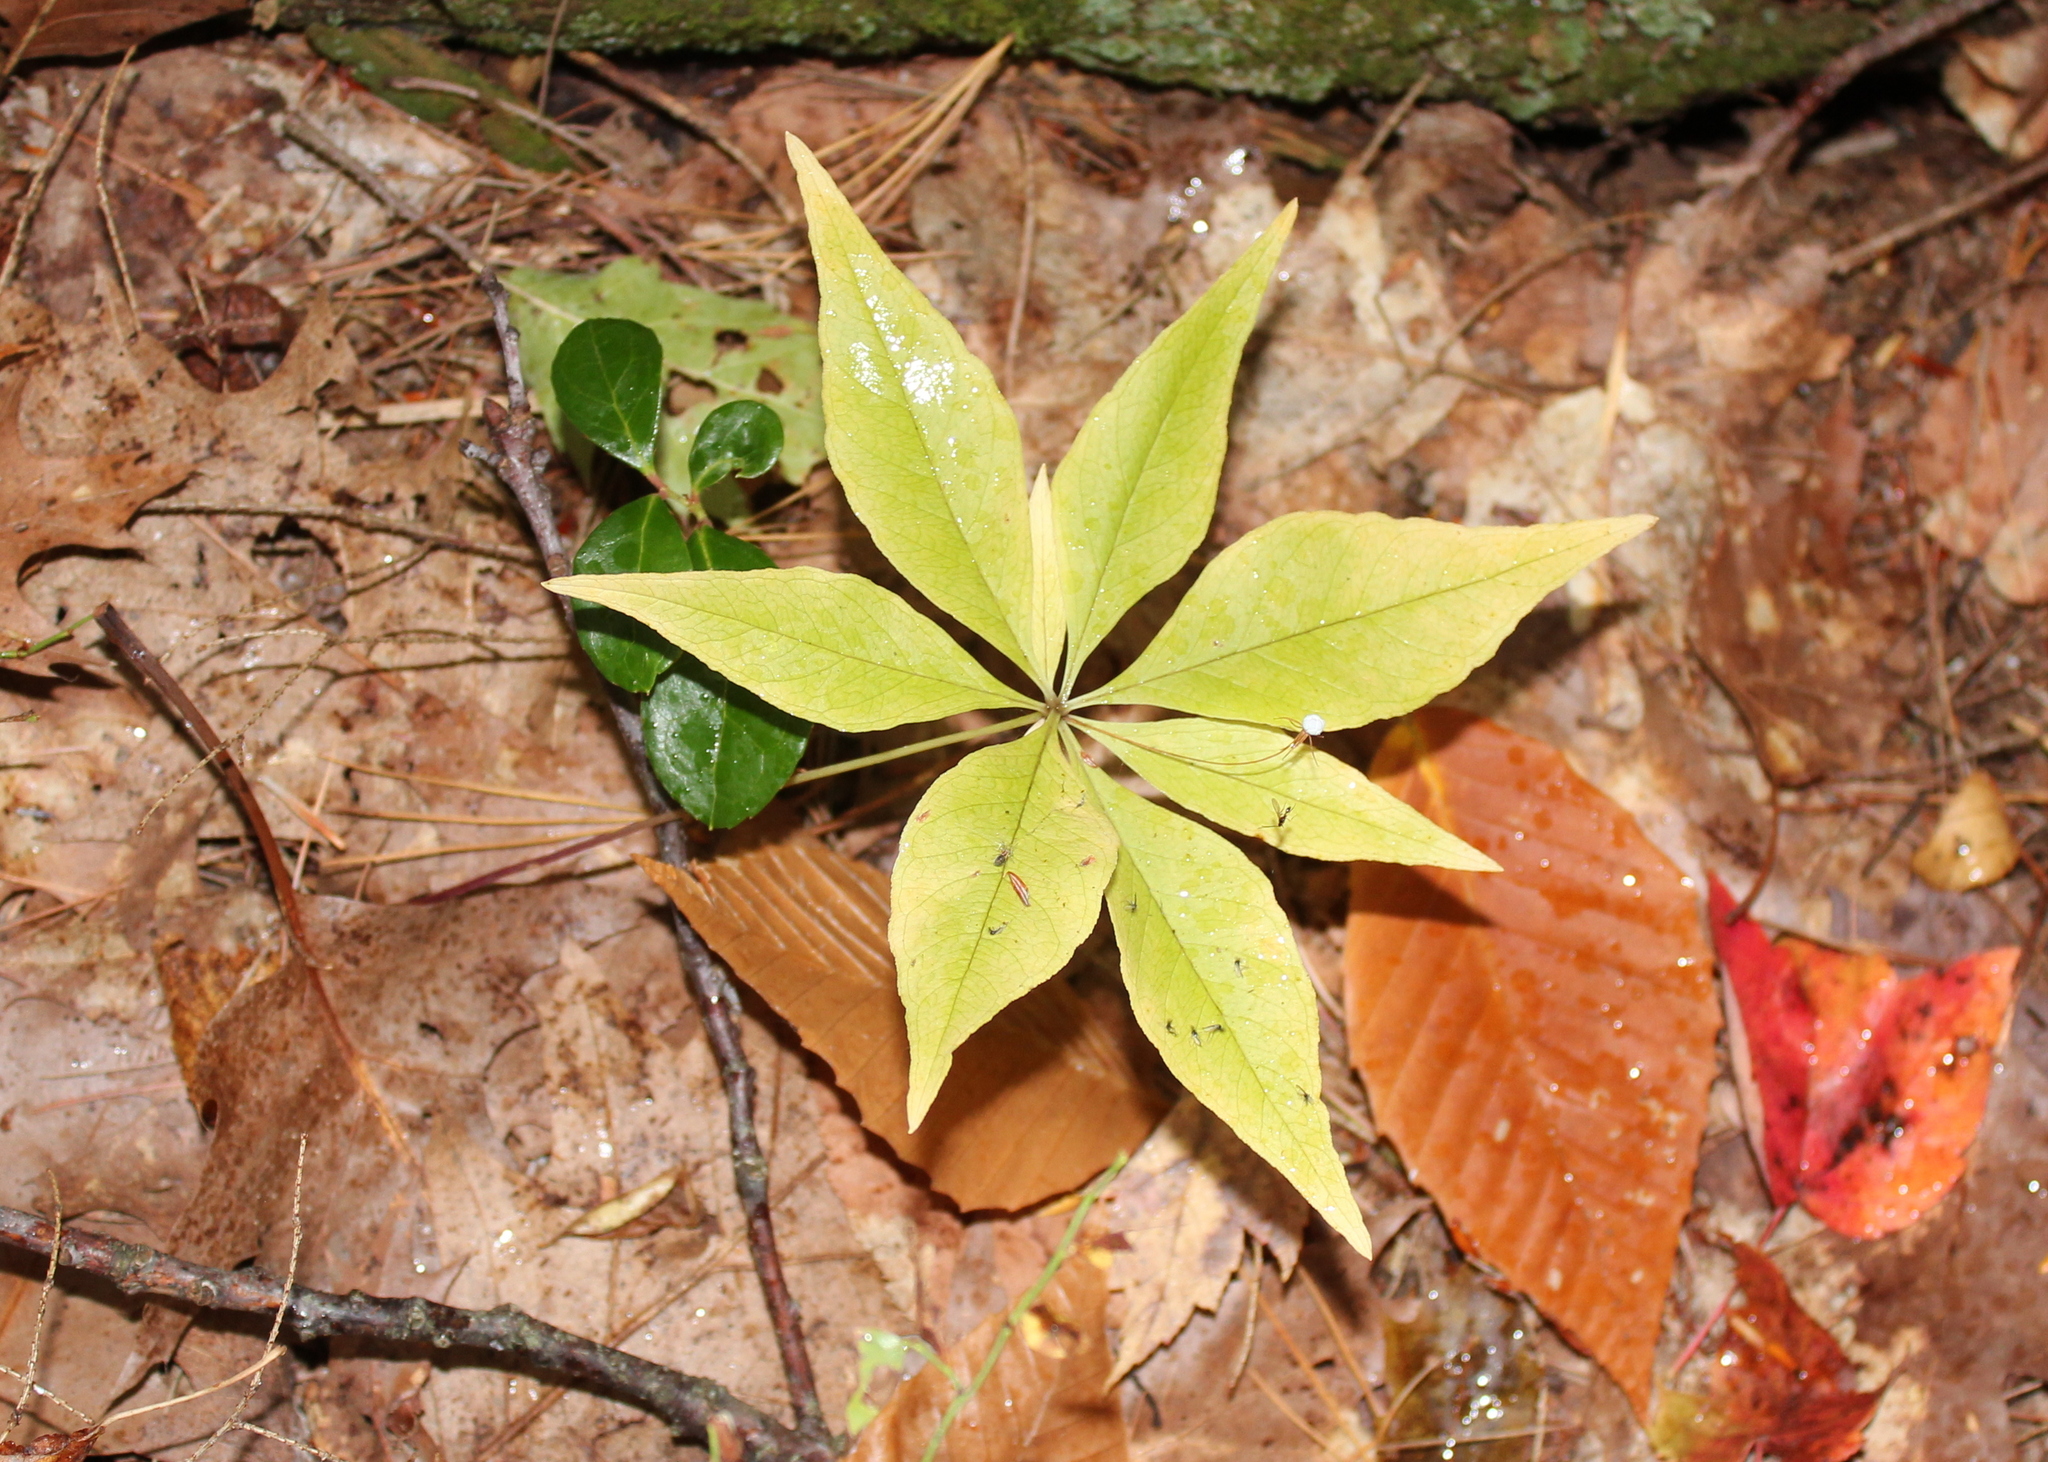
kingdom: Plantae
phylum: Tracheophyta
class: Magnoliopsida
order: Ericales
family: Primulaceae
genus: Lysimachia
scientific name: Lysimachia borealis
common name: American starflower
